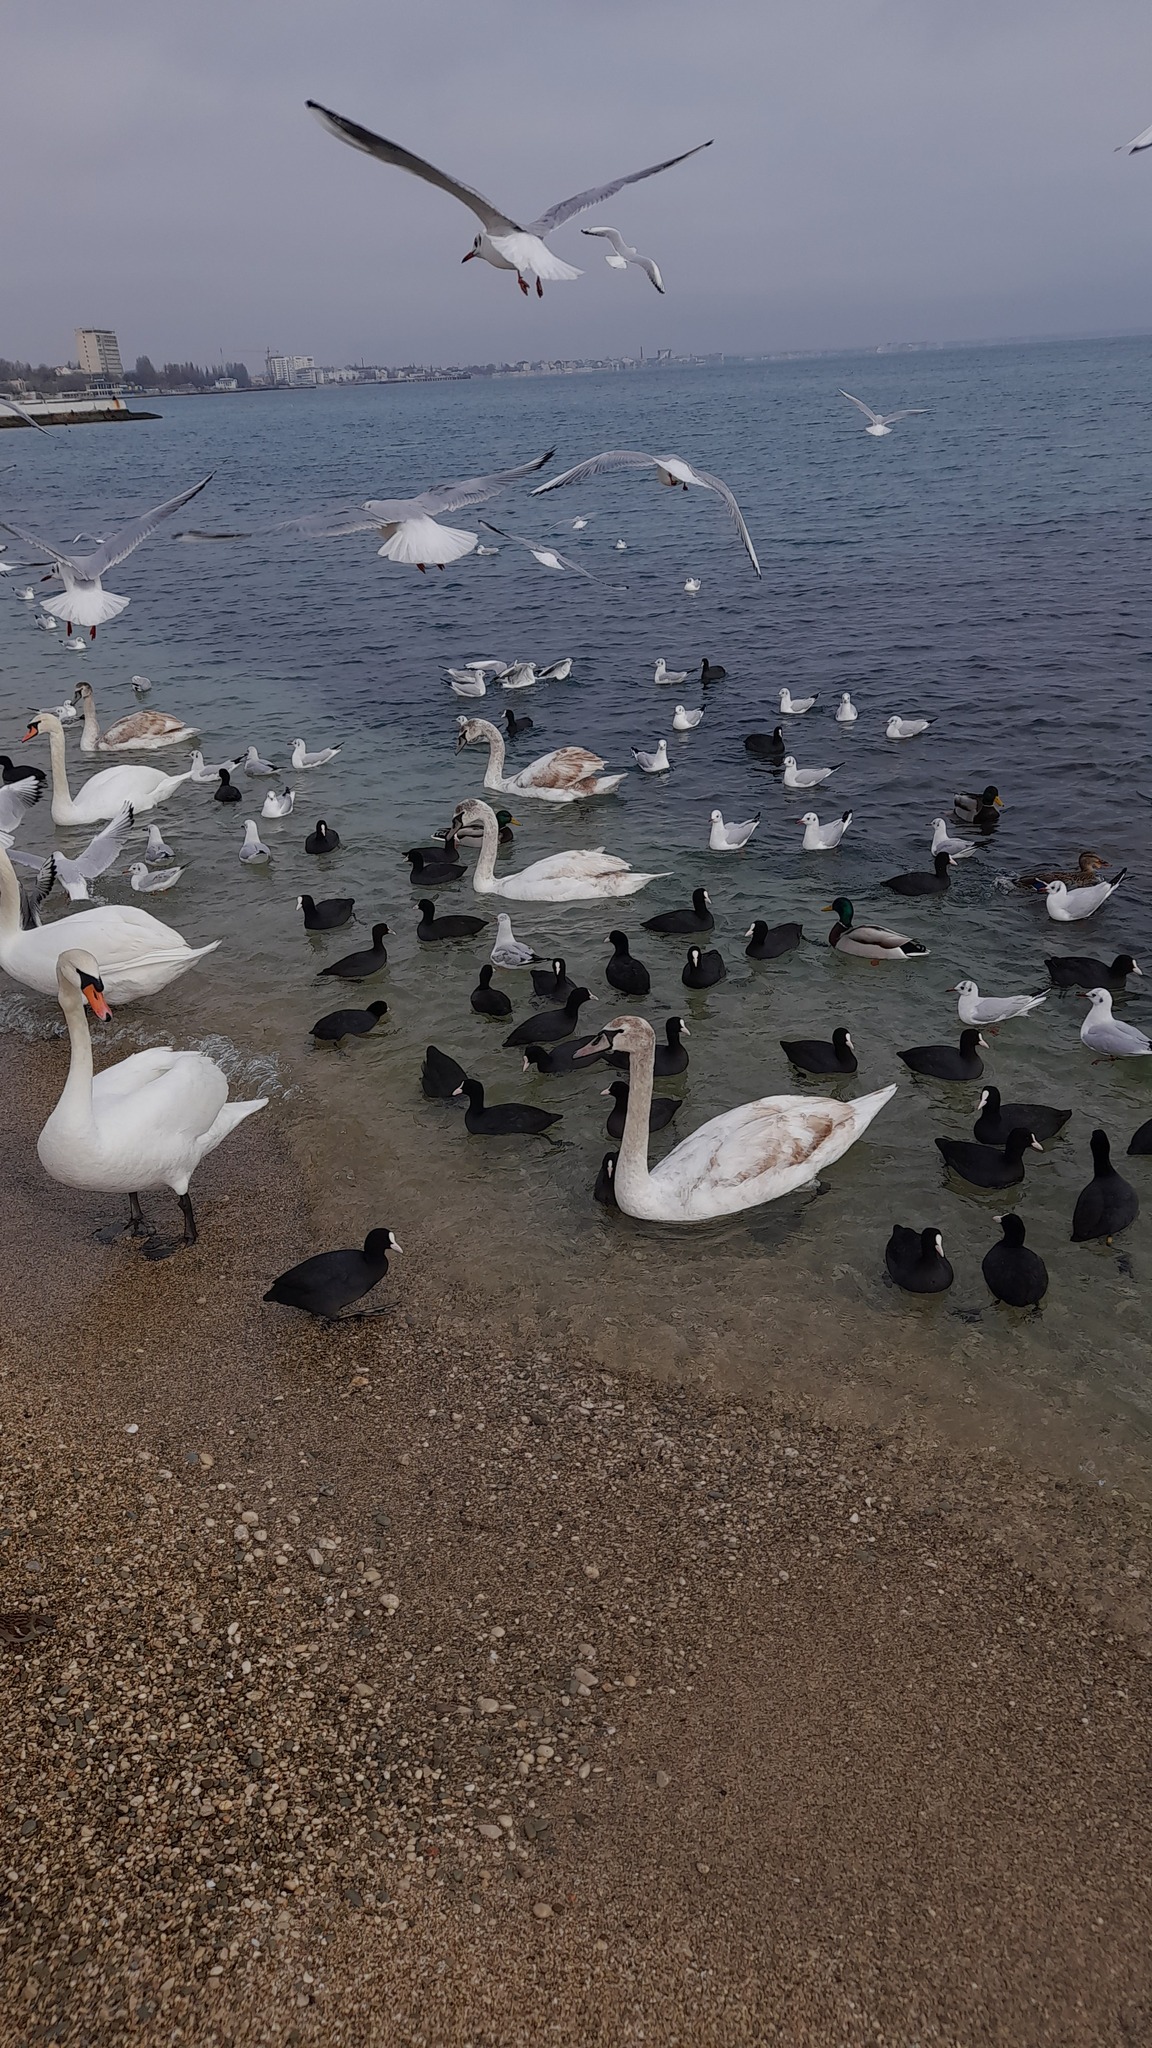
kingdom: Animalia
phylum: Chordata
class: Aves
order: Gruiformes
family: Rallidae
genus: Fulica
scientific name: Fulica atra
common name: Eurasian coot
